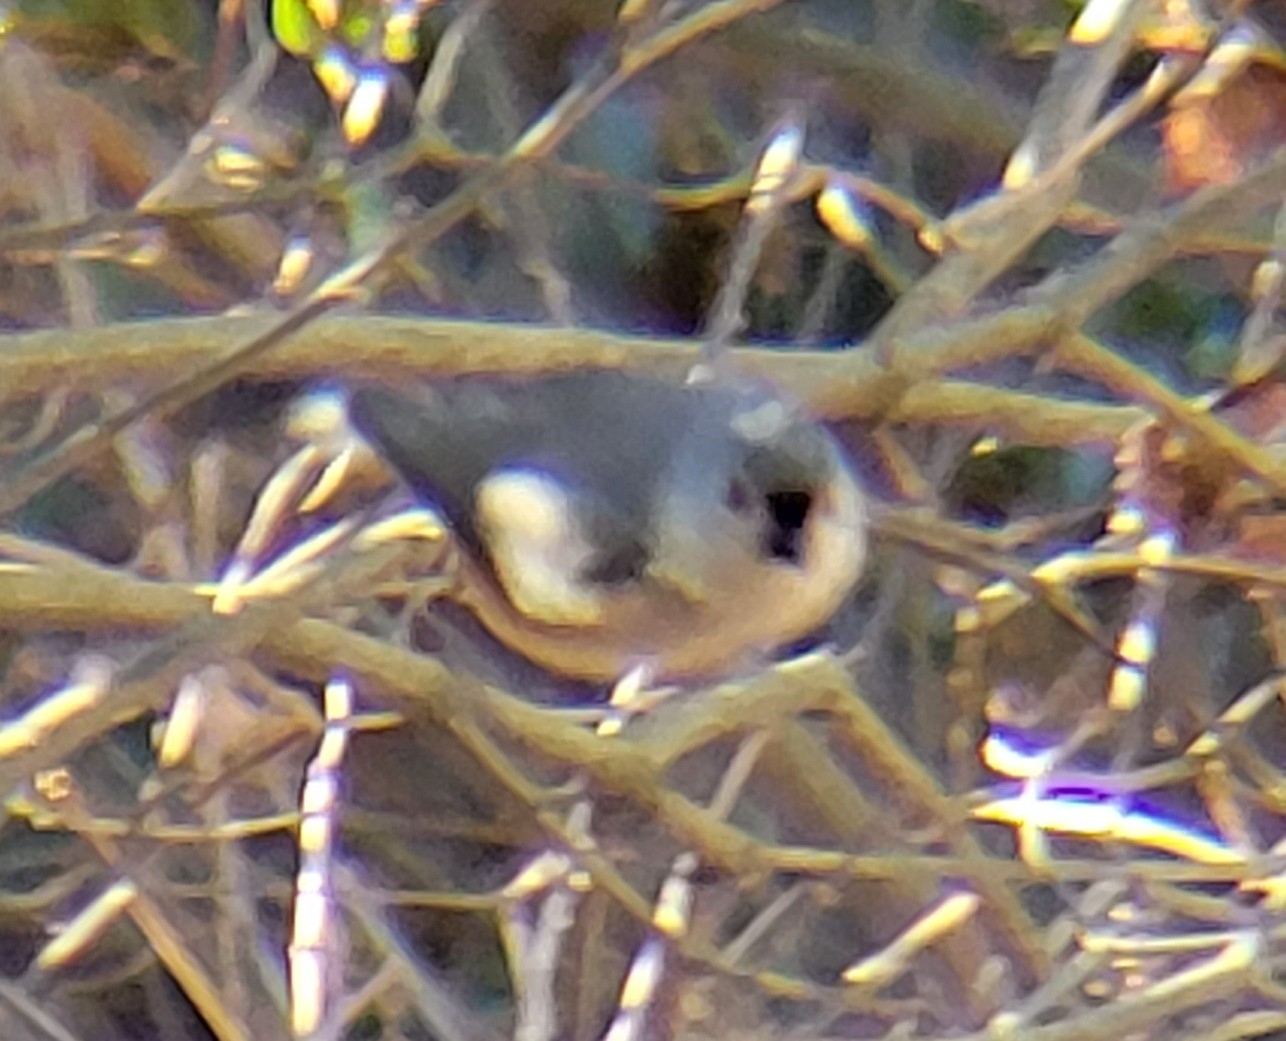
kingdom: Animalia
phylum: Chordata
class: Aves
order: Passeriformes
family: Paridae
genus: Baeolophus
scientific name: Baeolophus bicolor
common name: Tufted titmouse
